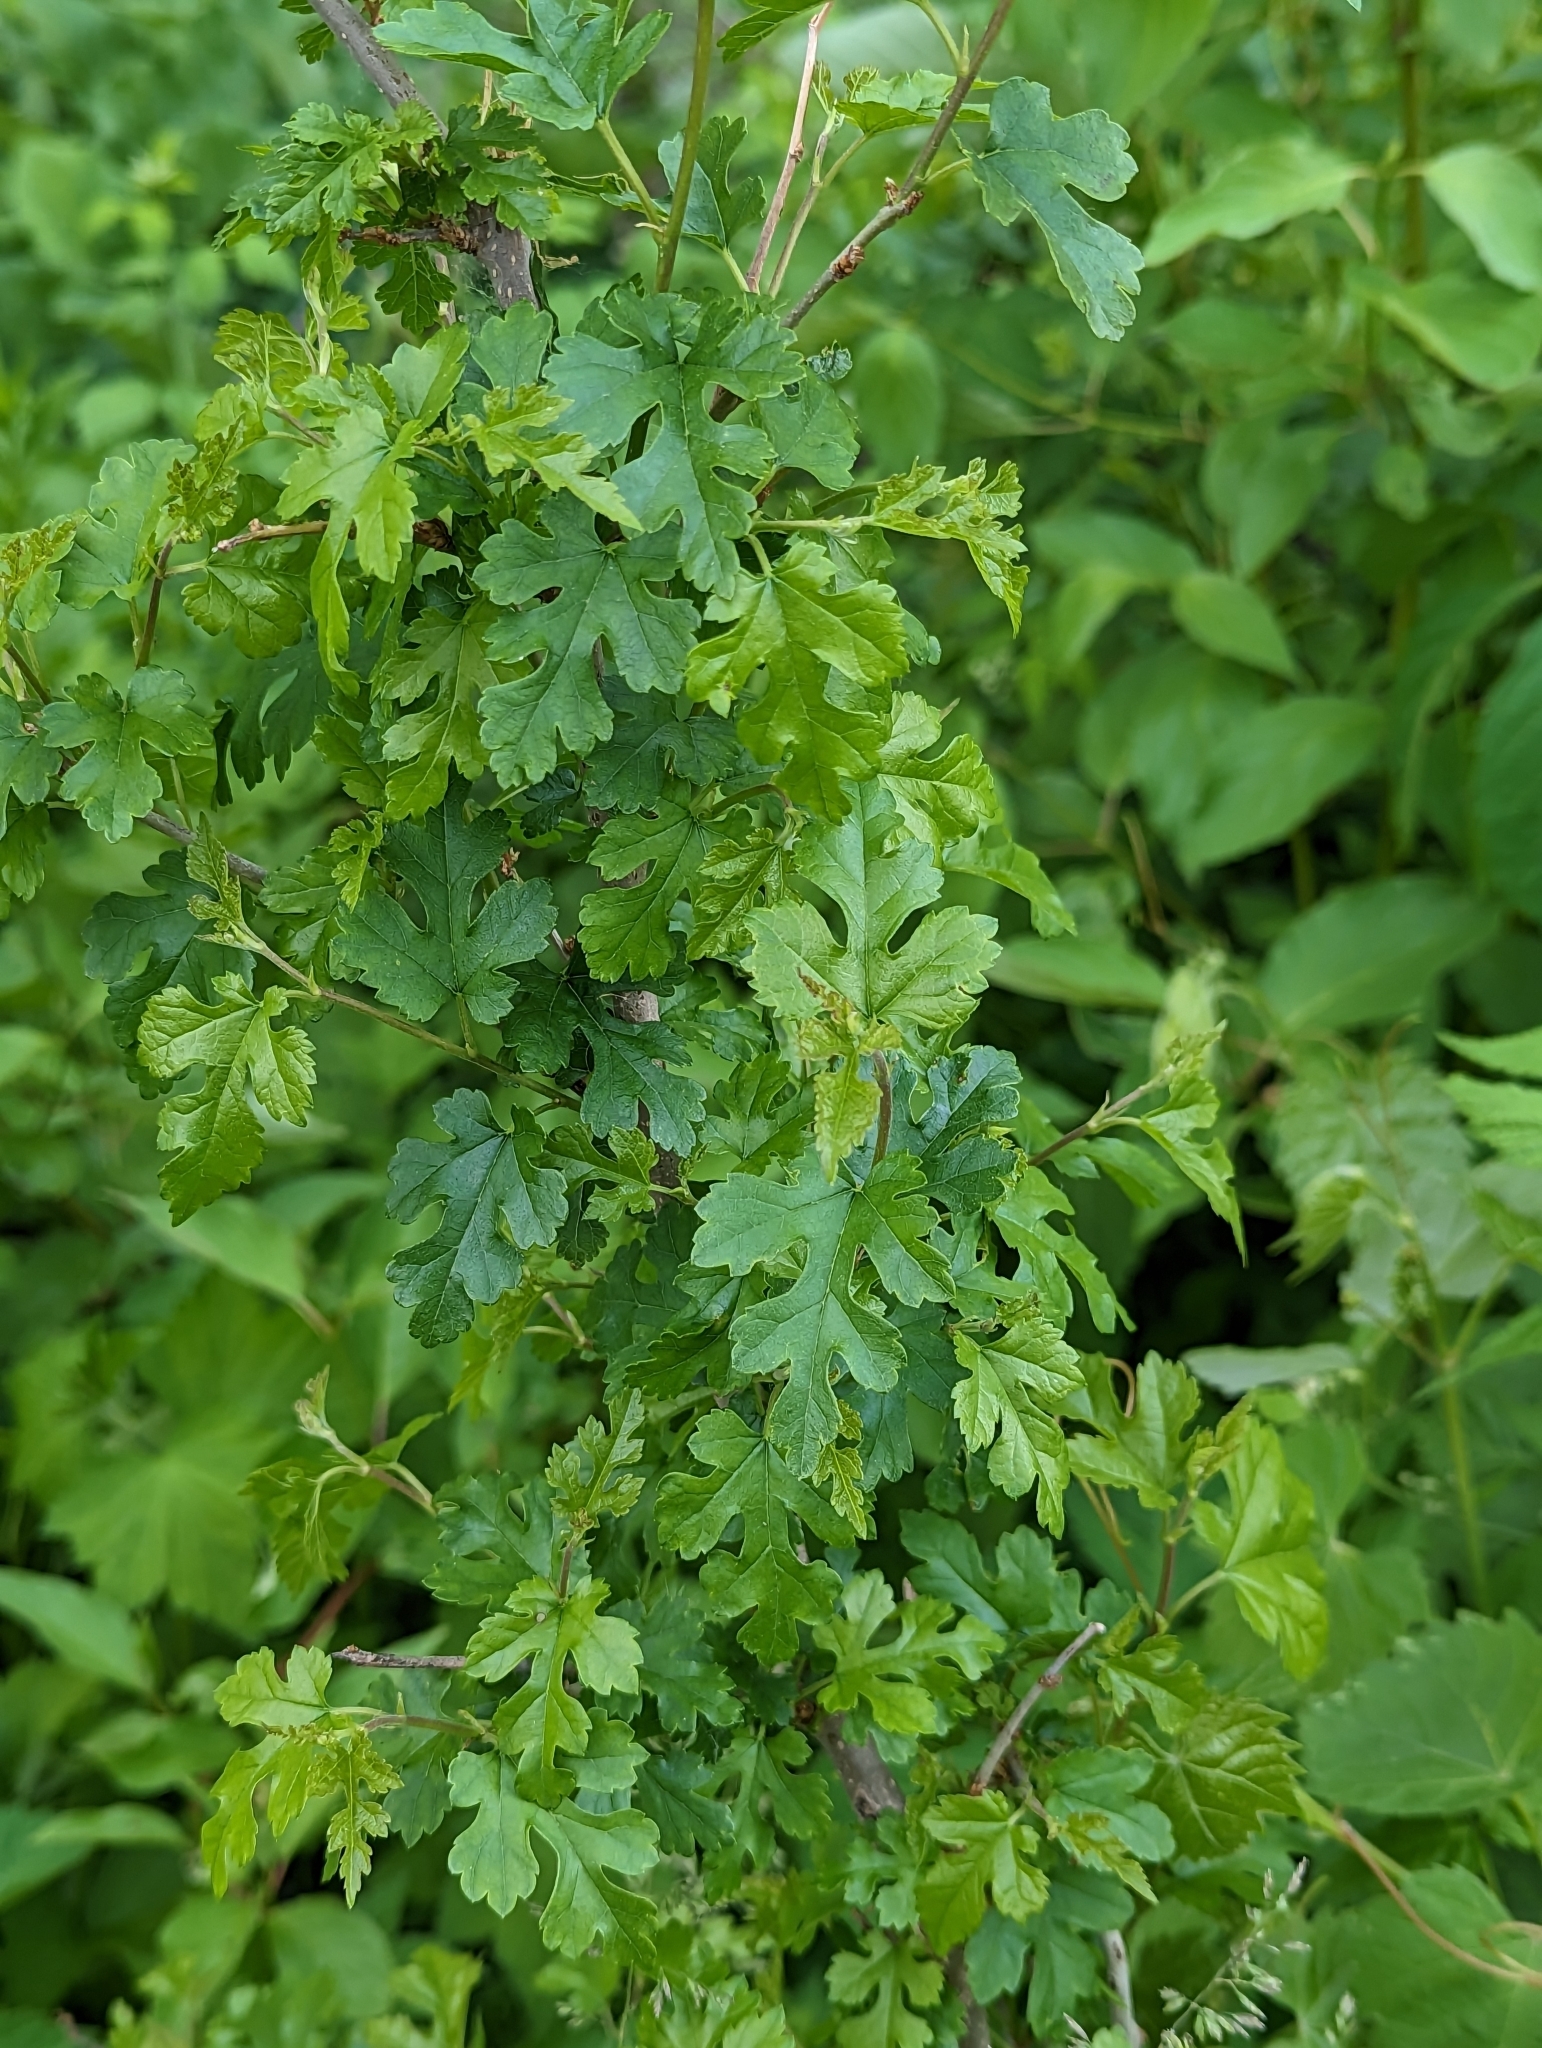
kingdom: Plantae
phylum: Tracheophyta
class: Magnoliopsida
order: Rosales
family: Moraceae
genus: Morus
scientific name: Morus alba
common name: White mulberry
